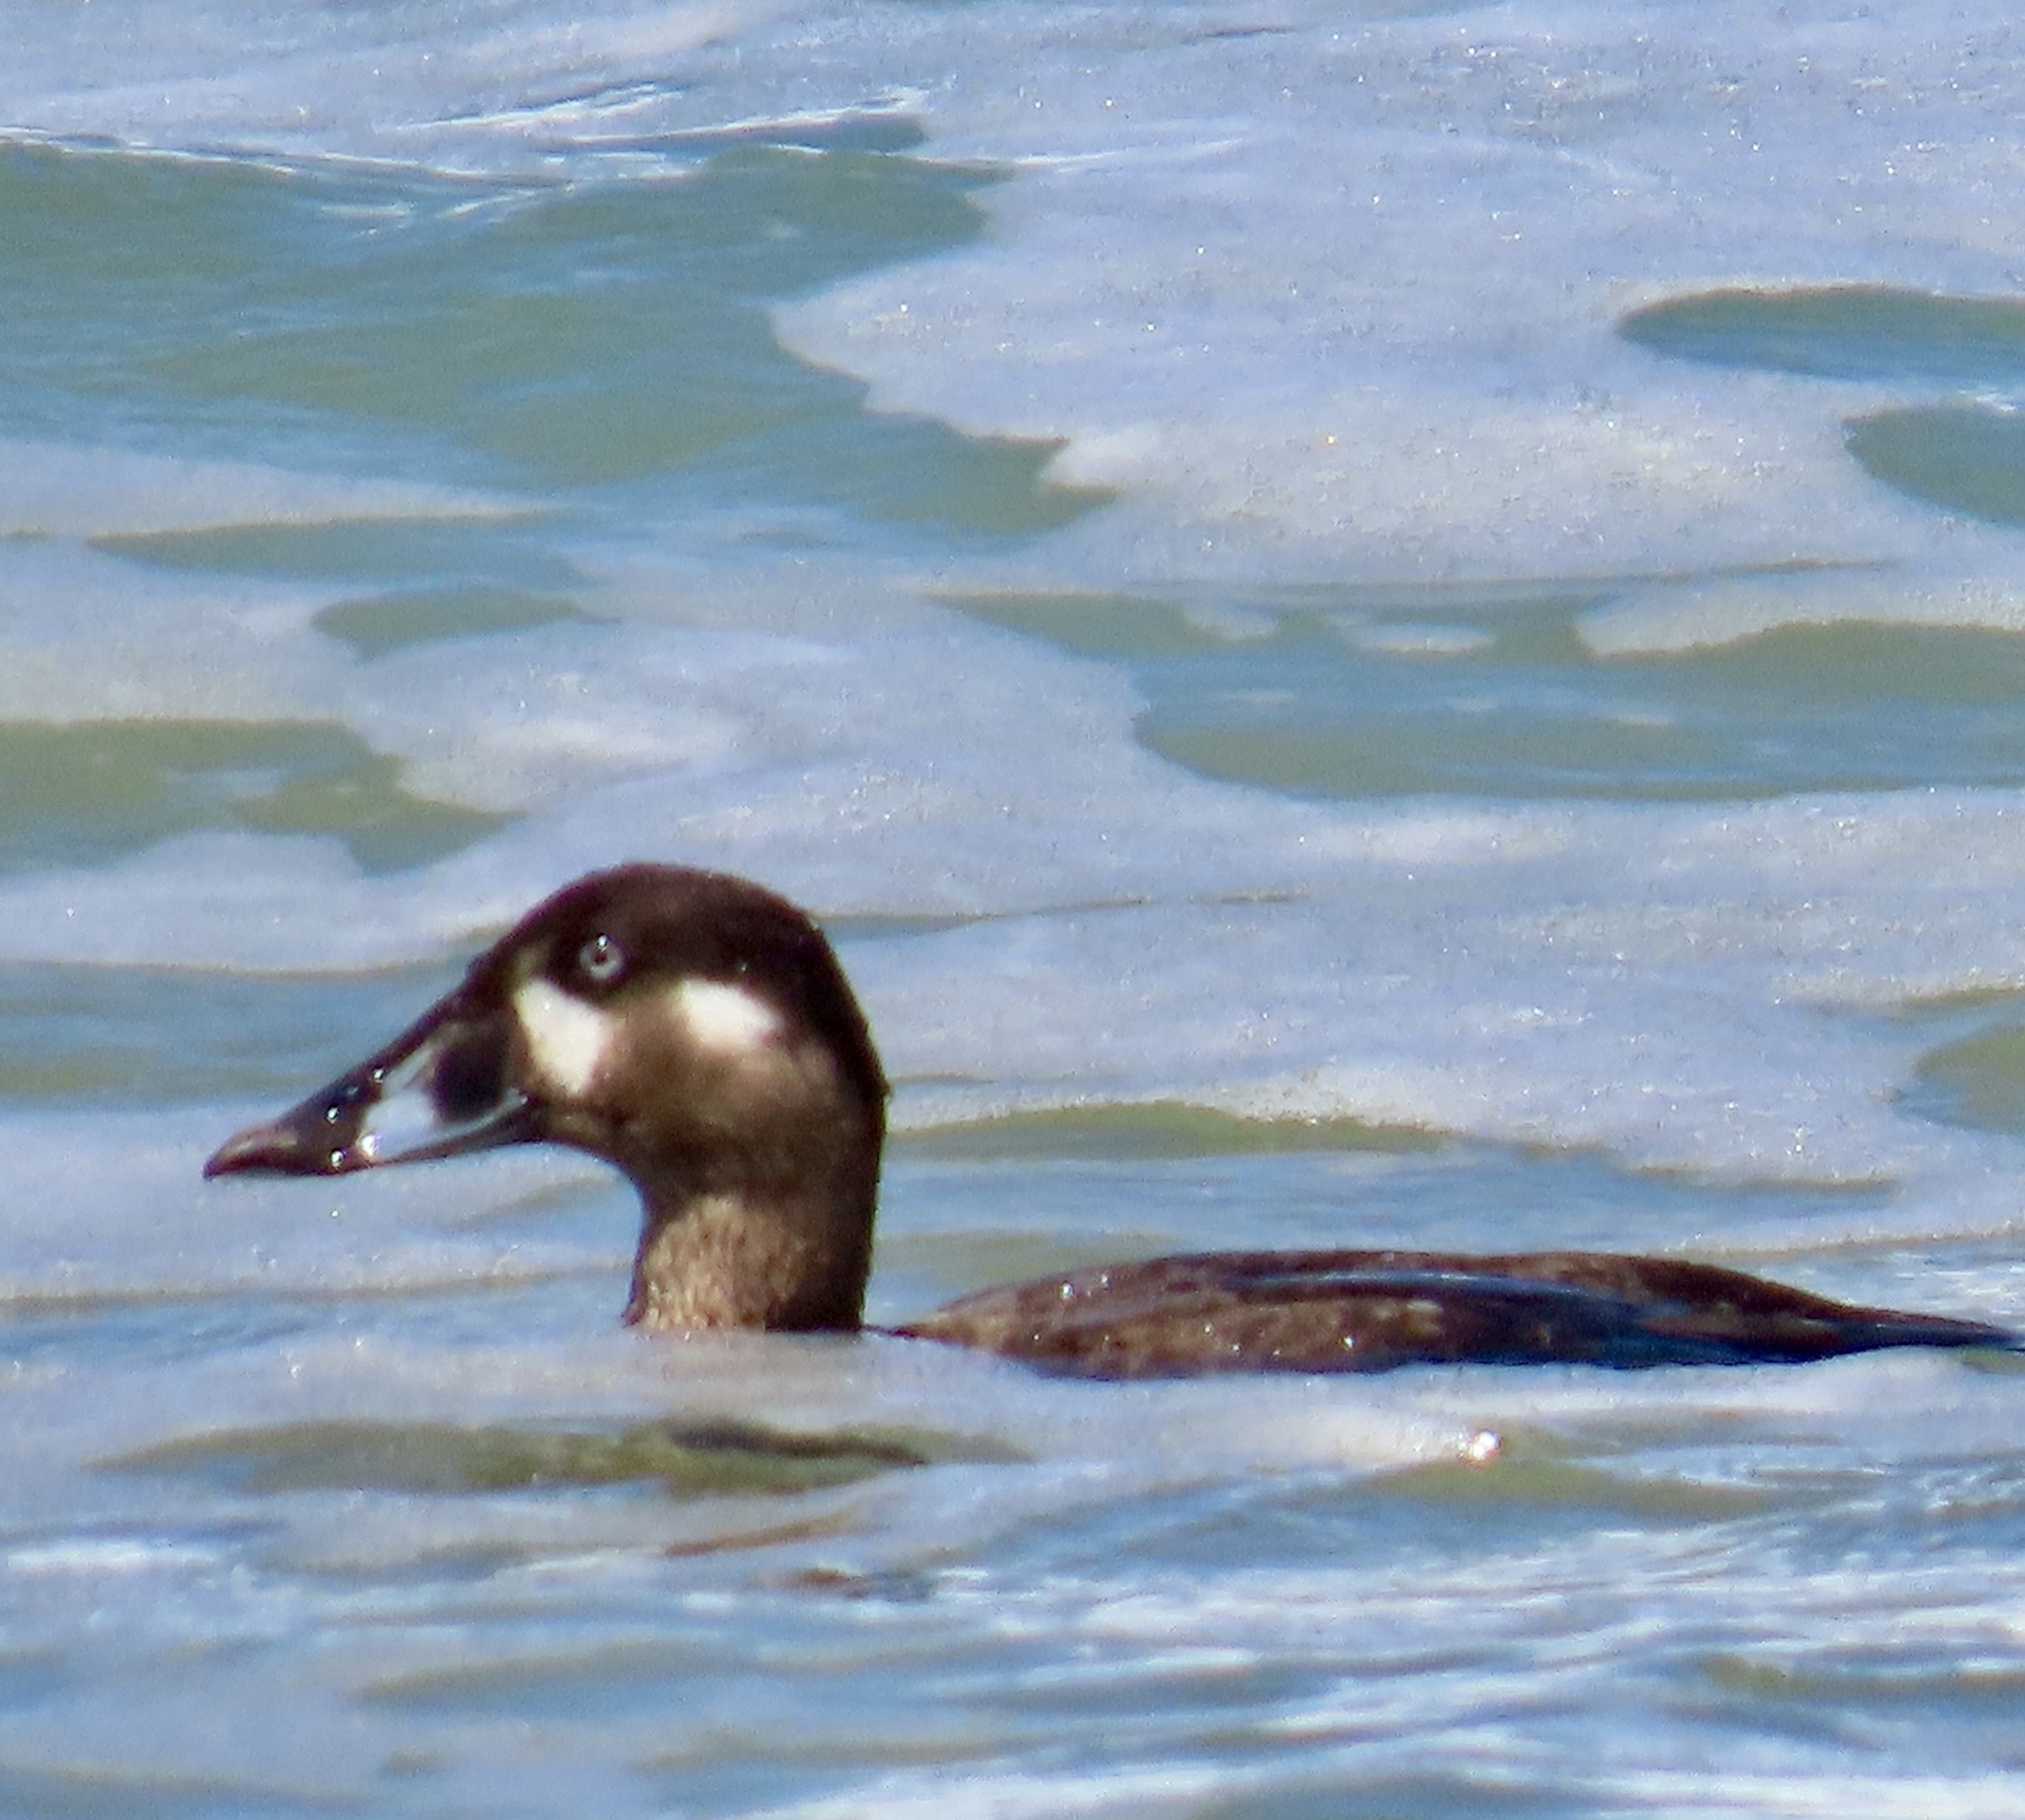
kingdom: Animalia
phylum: Chordata
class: Aves
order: Anseriformes
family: Anatidae
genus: Melanitta
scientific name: Melanitta perspicillata
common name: Surf scoter
